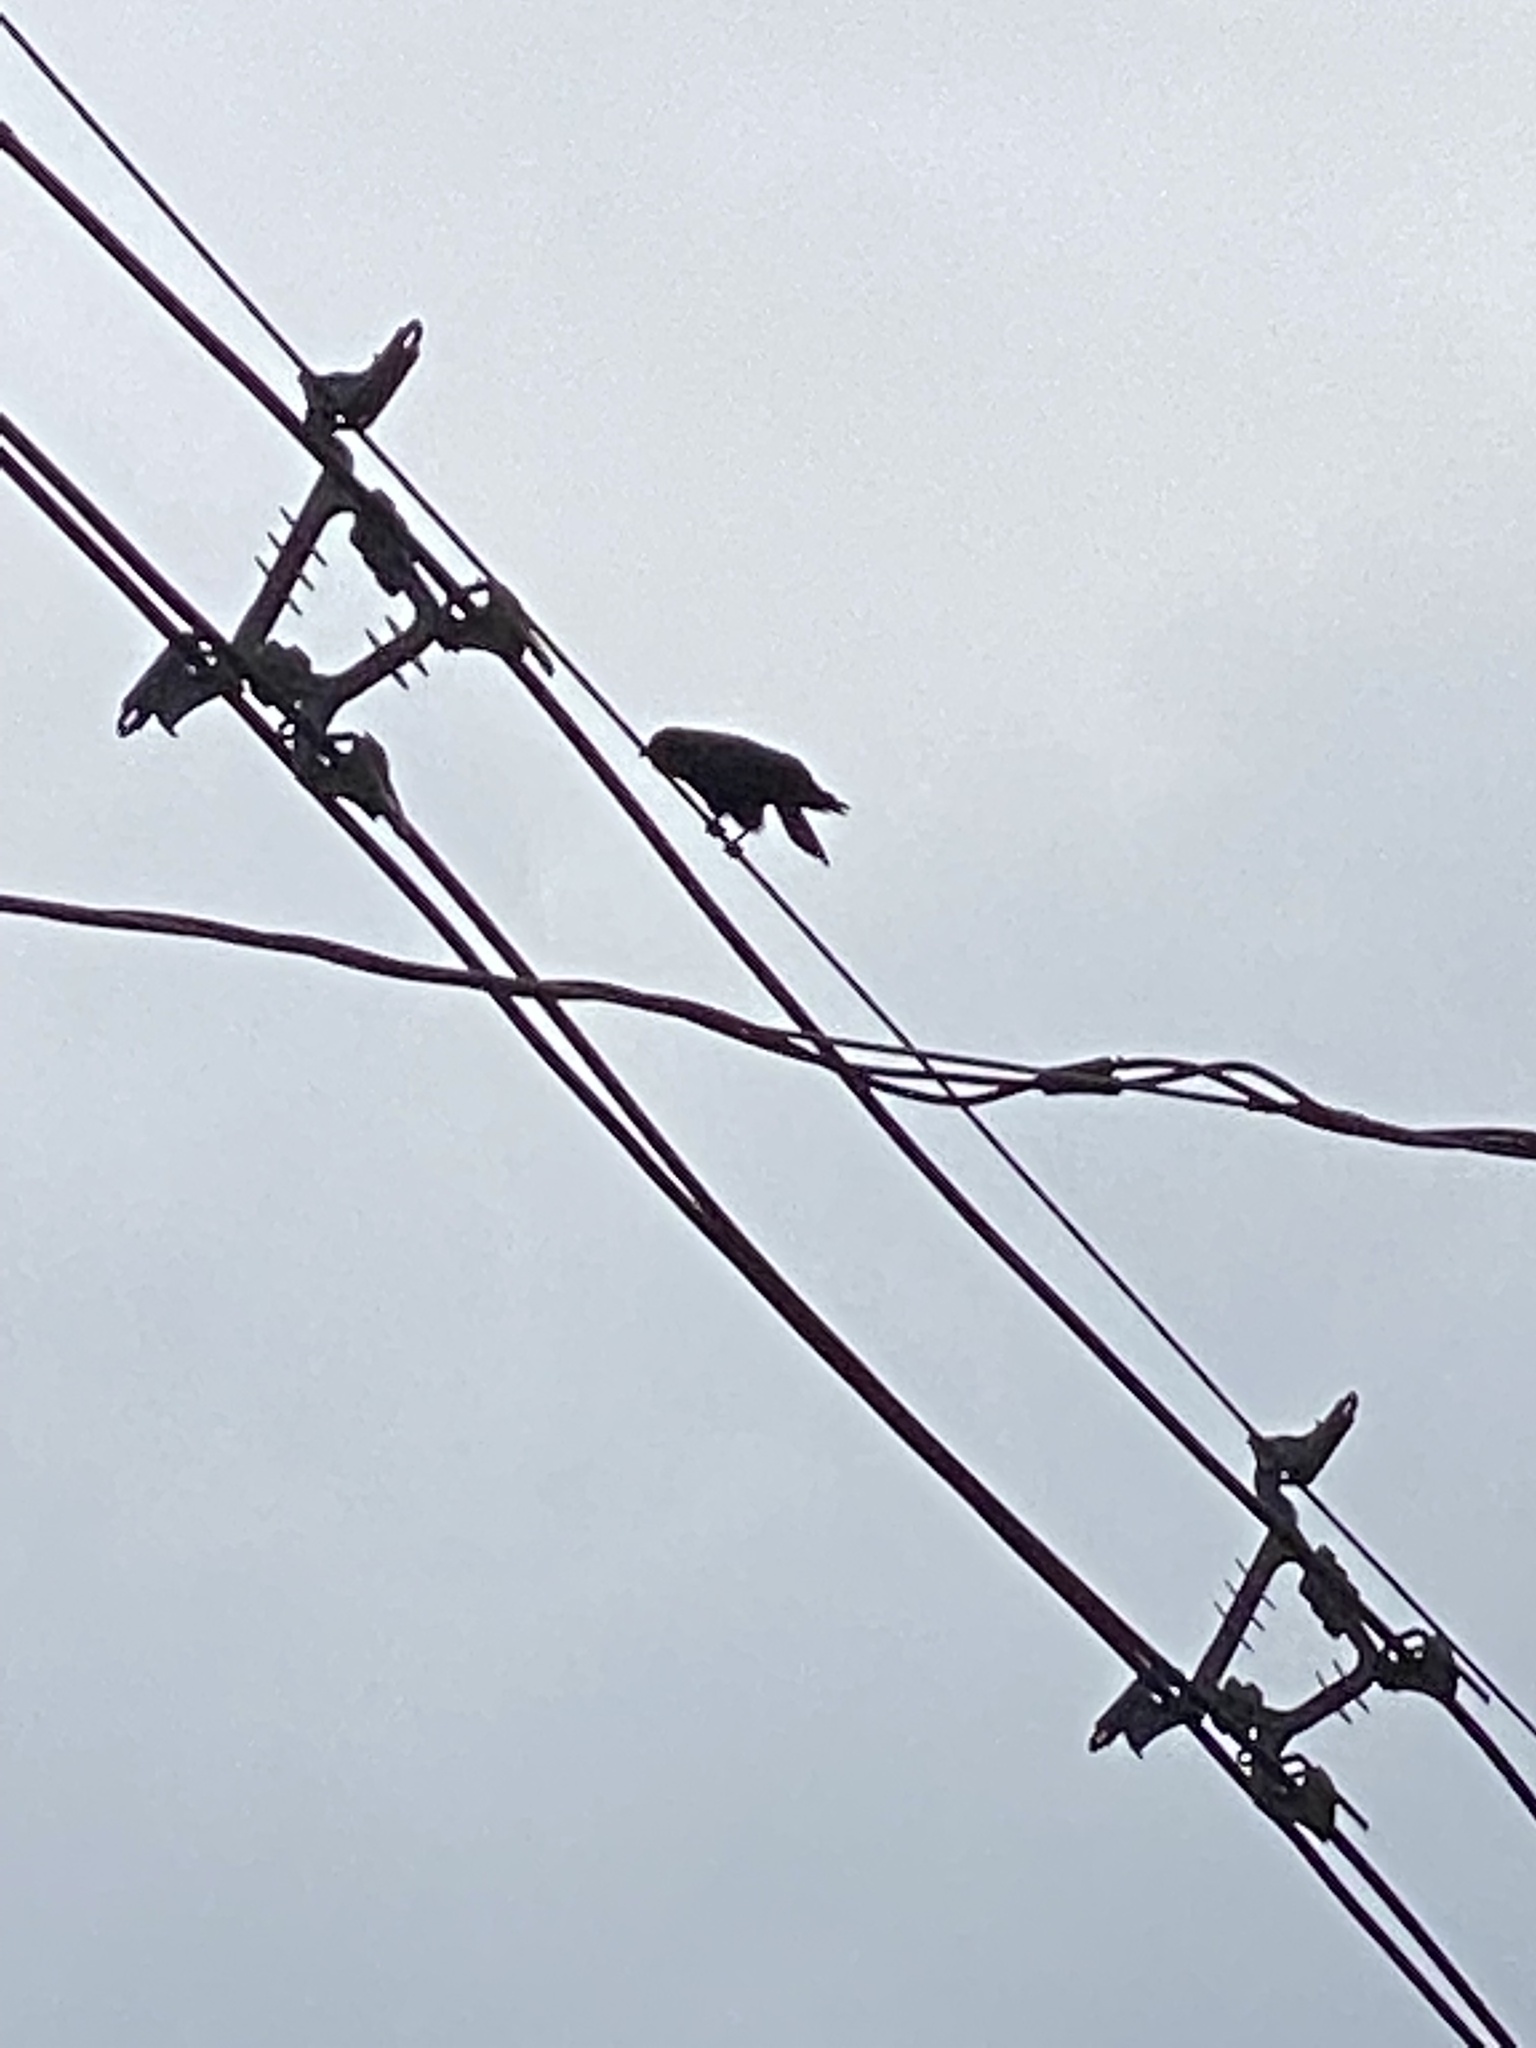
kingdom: Animalia
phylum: Chordata
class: Aves
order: Passeriformes
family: Corvidae
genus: Corvus
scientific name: Corvus ossifragus
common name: Fish crow
